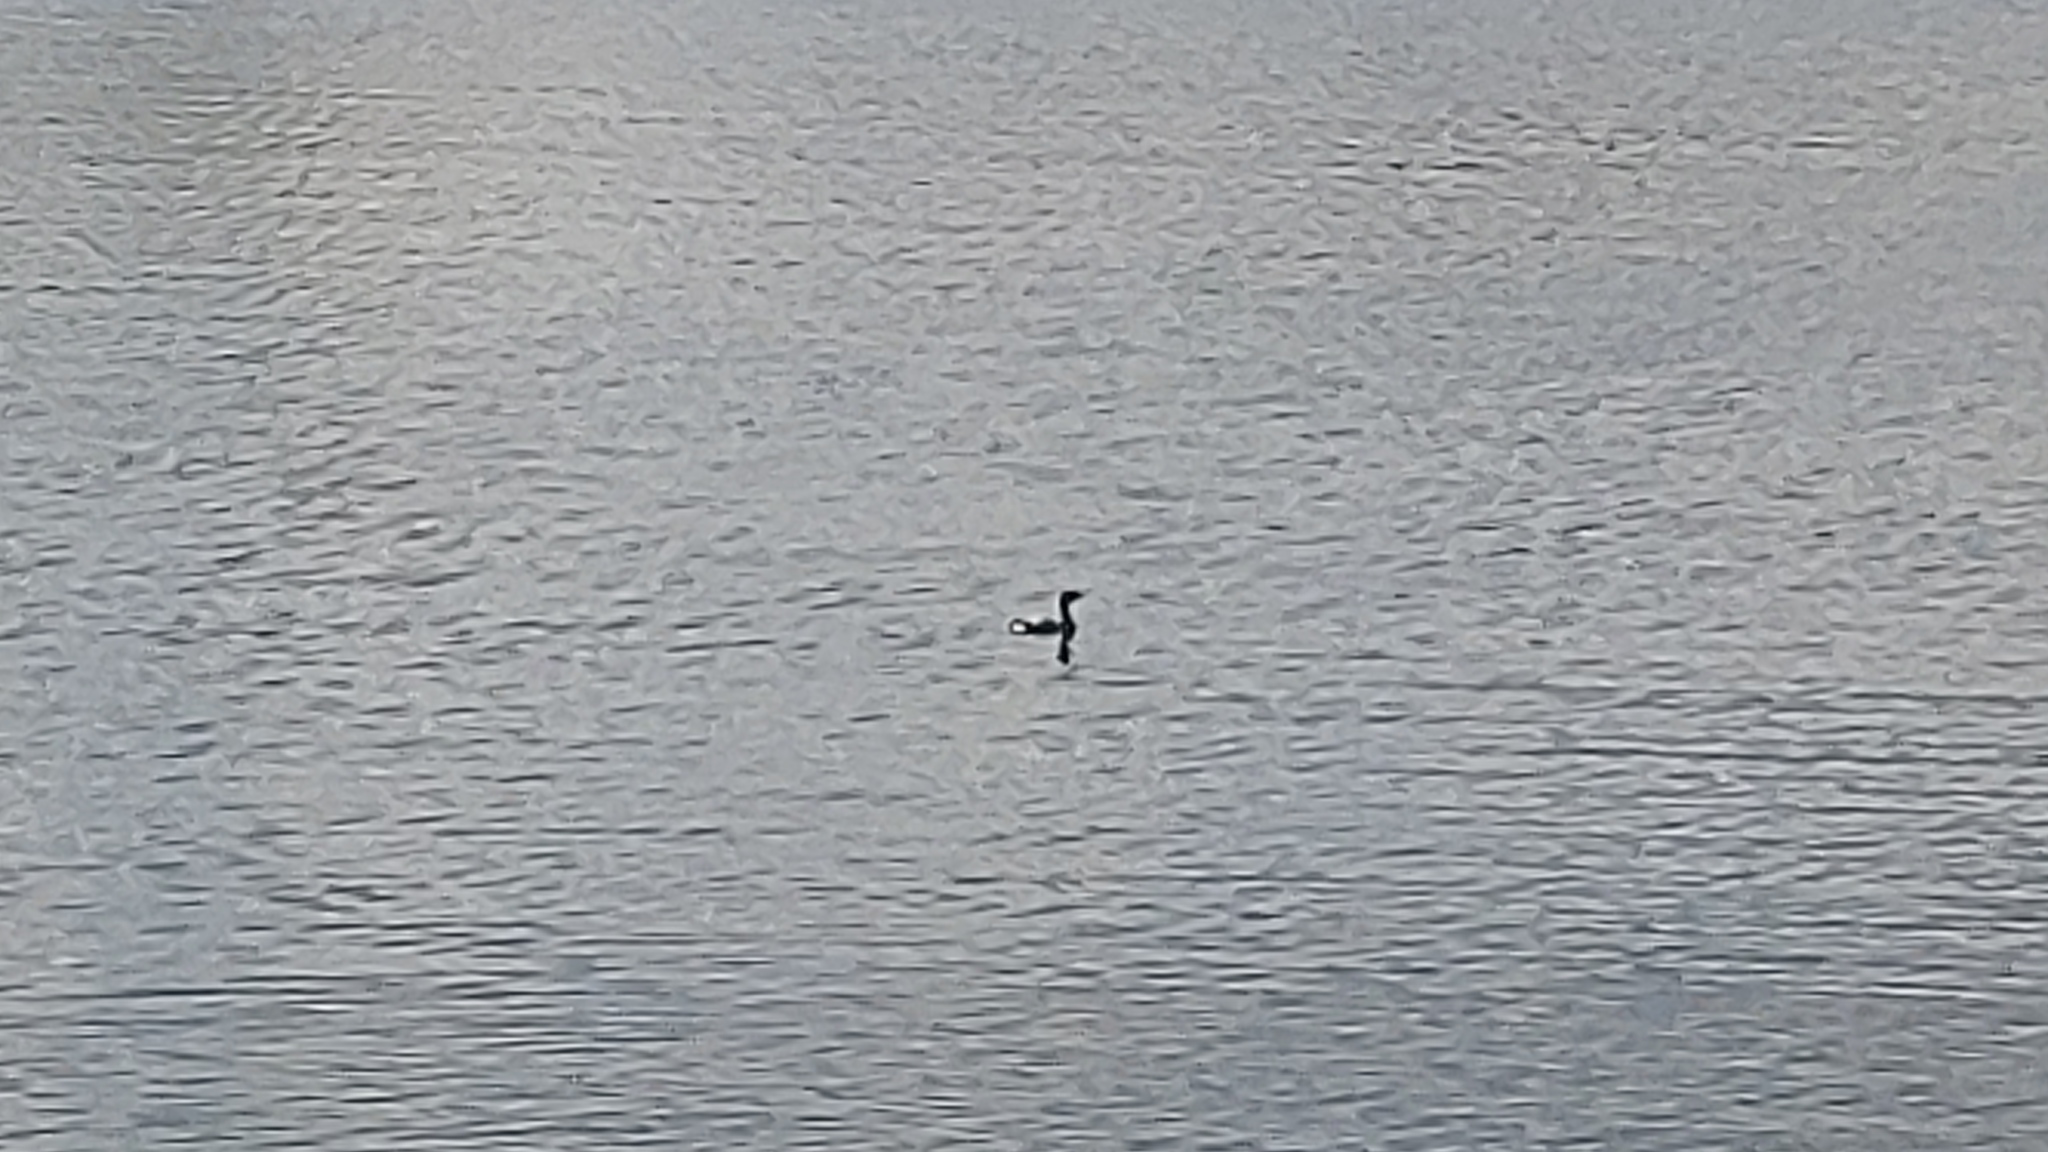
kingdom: Animalia
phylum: Chordata
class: Aves
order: Podicipediformes
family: Podicipedidae
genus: Podilymbus
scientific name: Podilymbus podiceps
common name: Pied-billed grebe
